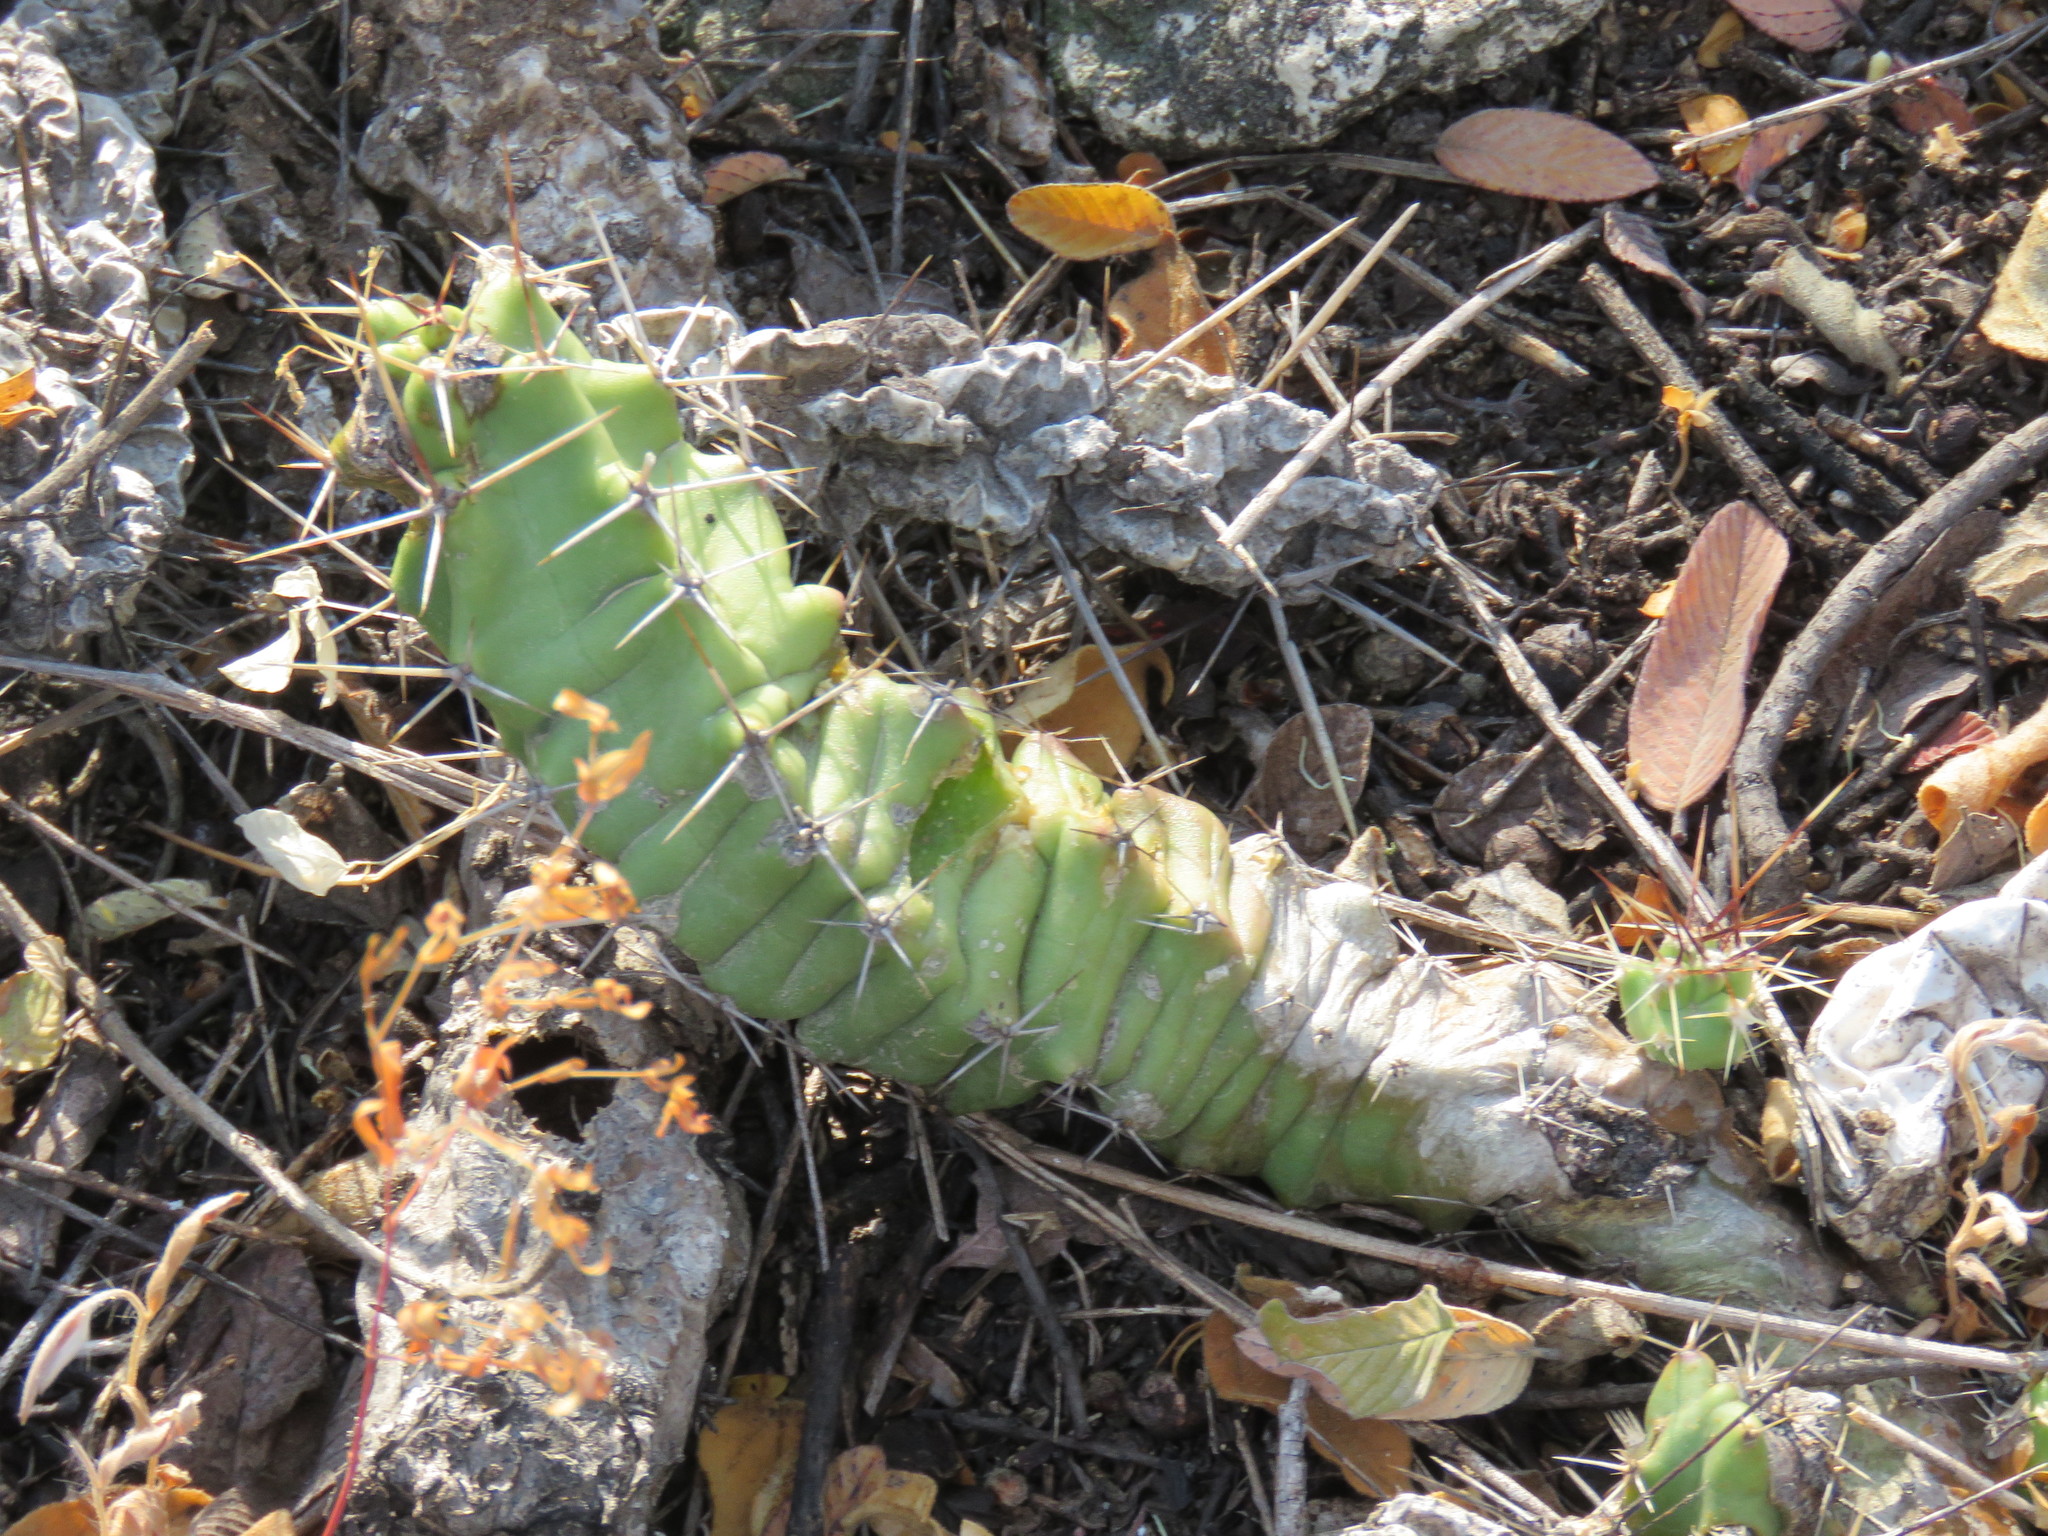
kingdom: Plantae
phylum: Tracheophyta
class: Magnoliopsida
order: Caryophyllales
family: Cactaceae
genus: Echinocereus
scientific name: Echinocereus pentalophus
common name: Ladyfinger cactus
